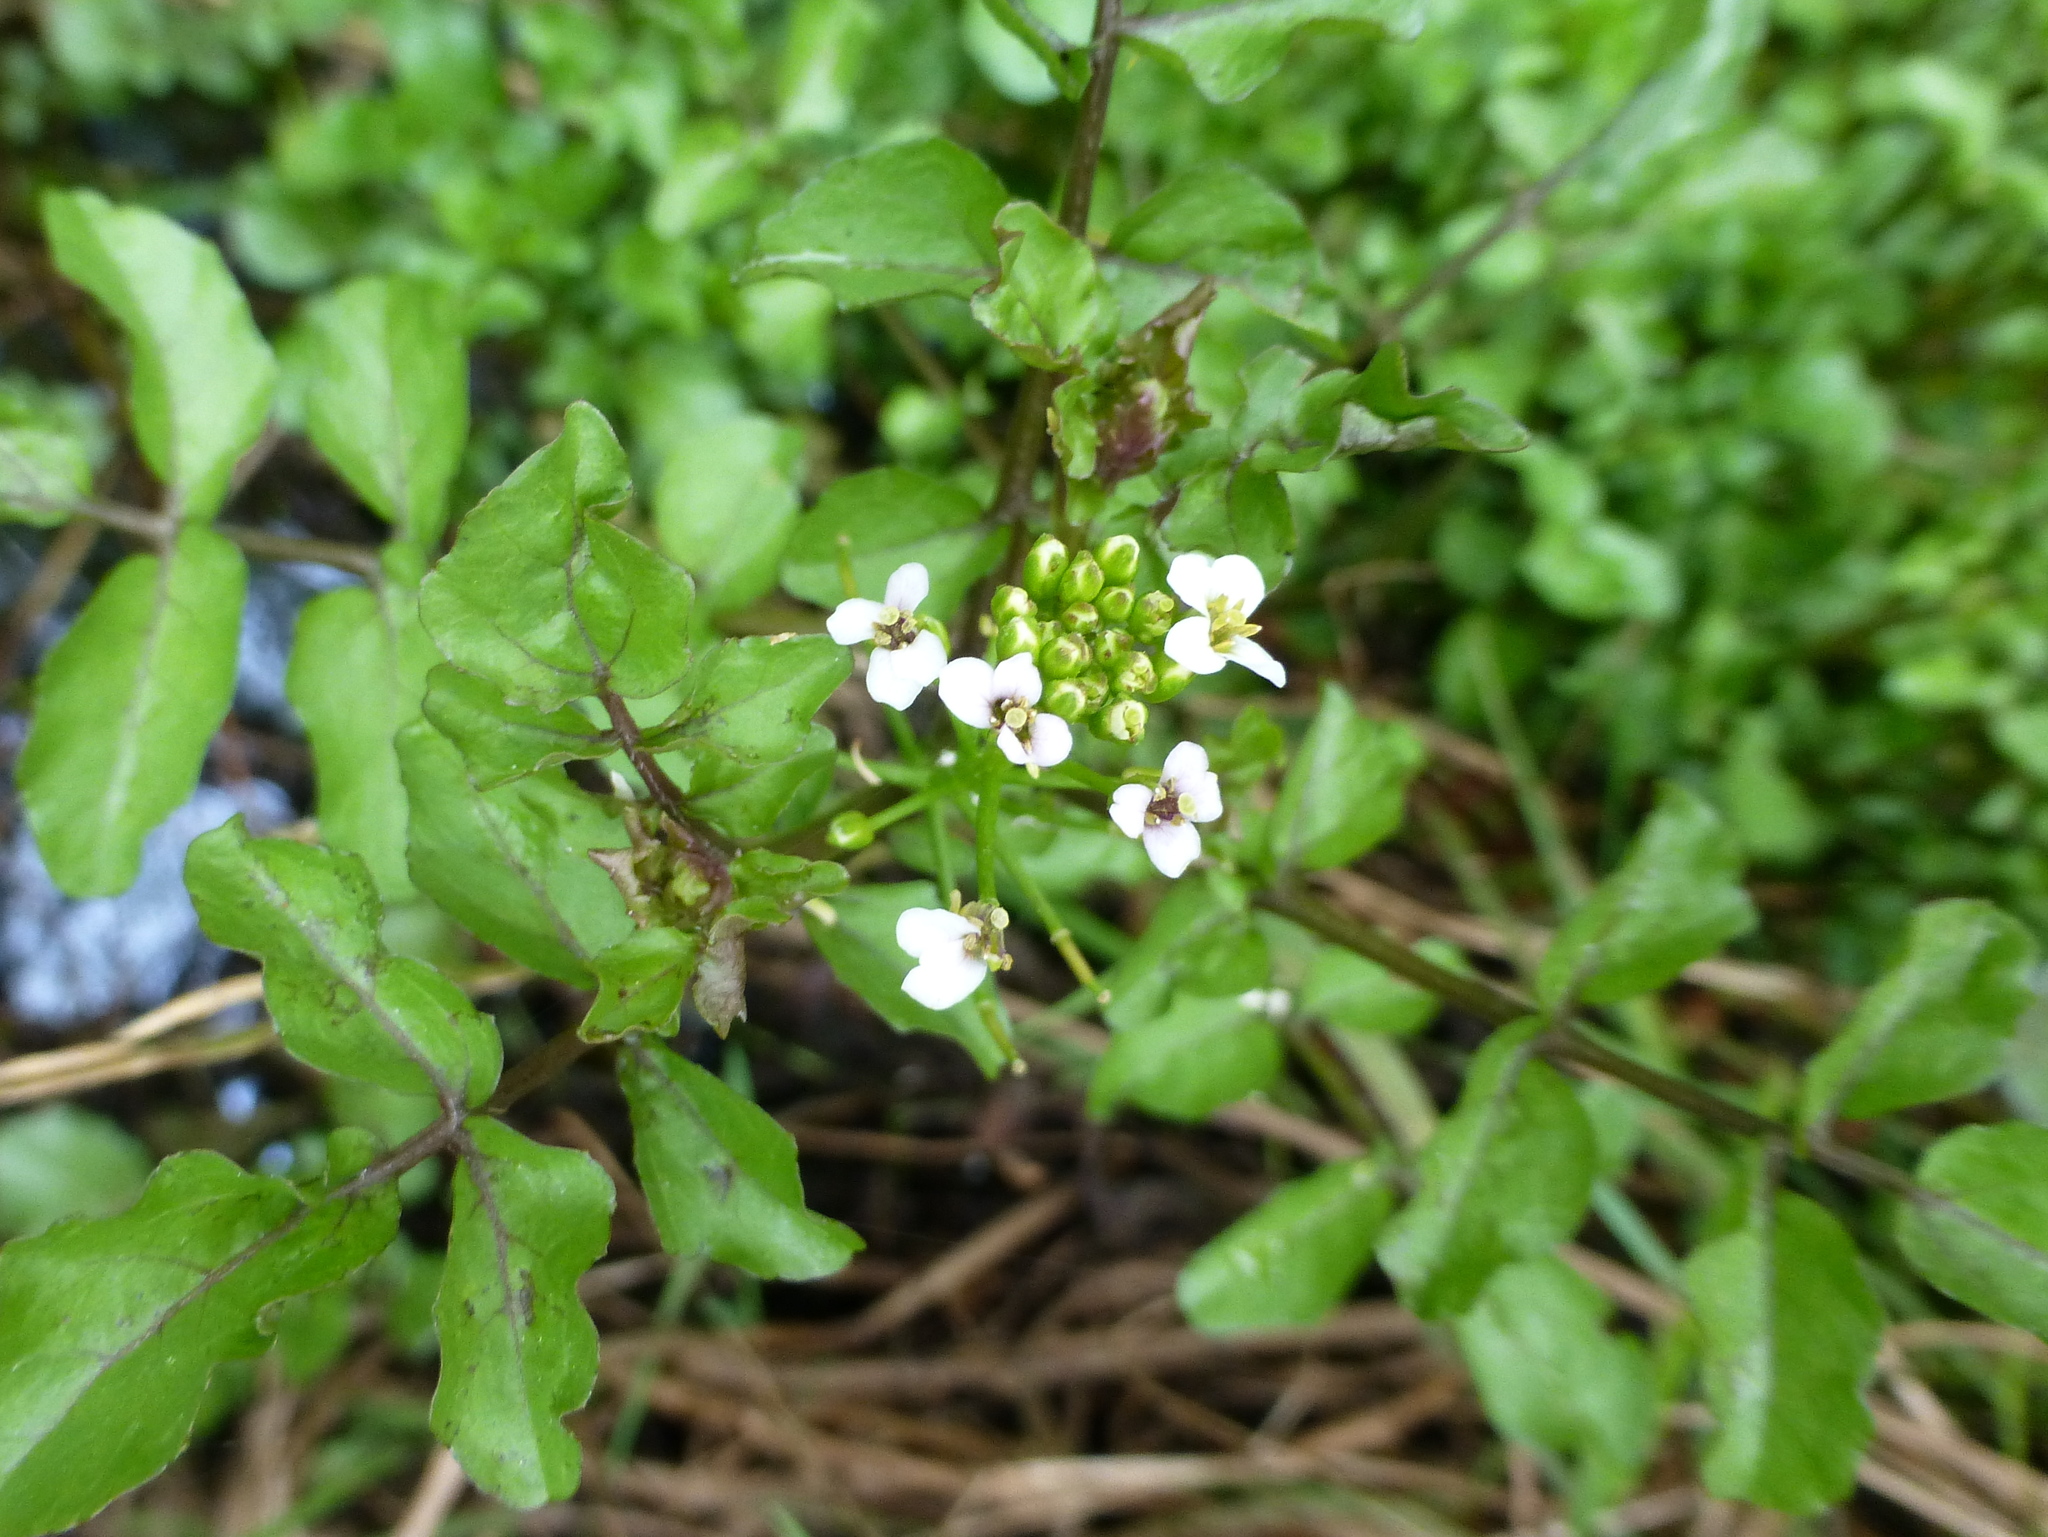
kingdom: Plantae
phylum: Tracheophyta
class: Magnoliopsida
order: Brassicales
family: Brassicaceae
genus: Nasturtium
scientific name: Nasturtium officinale
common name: Watercress
